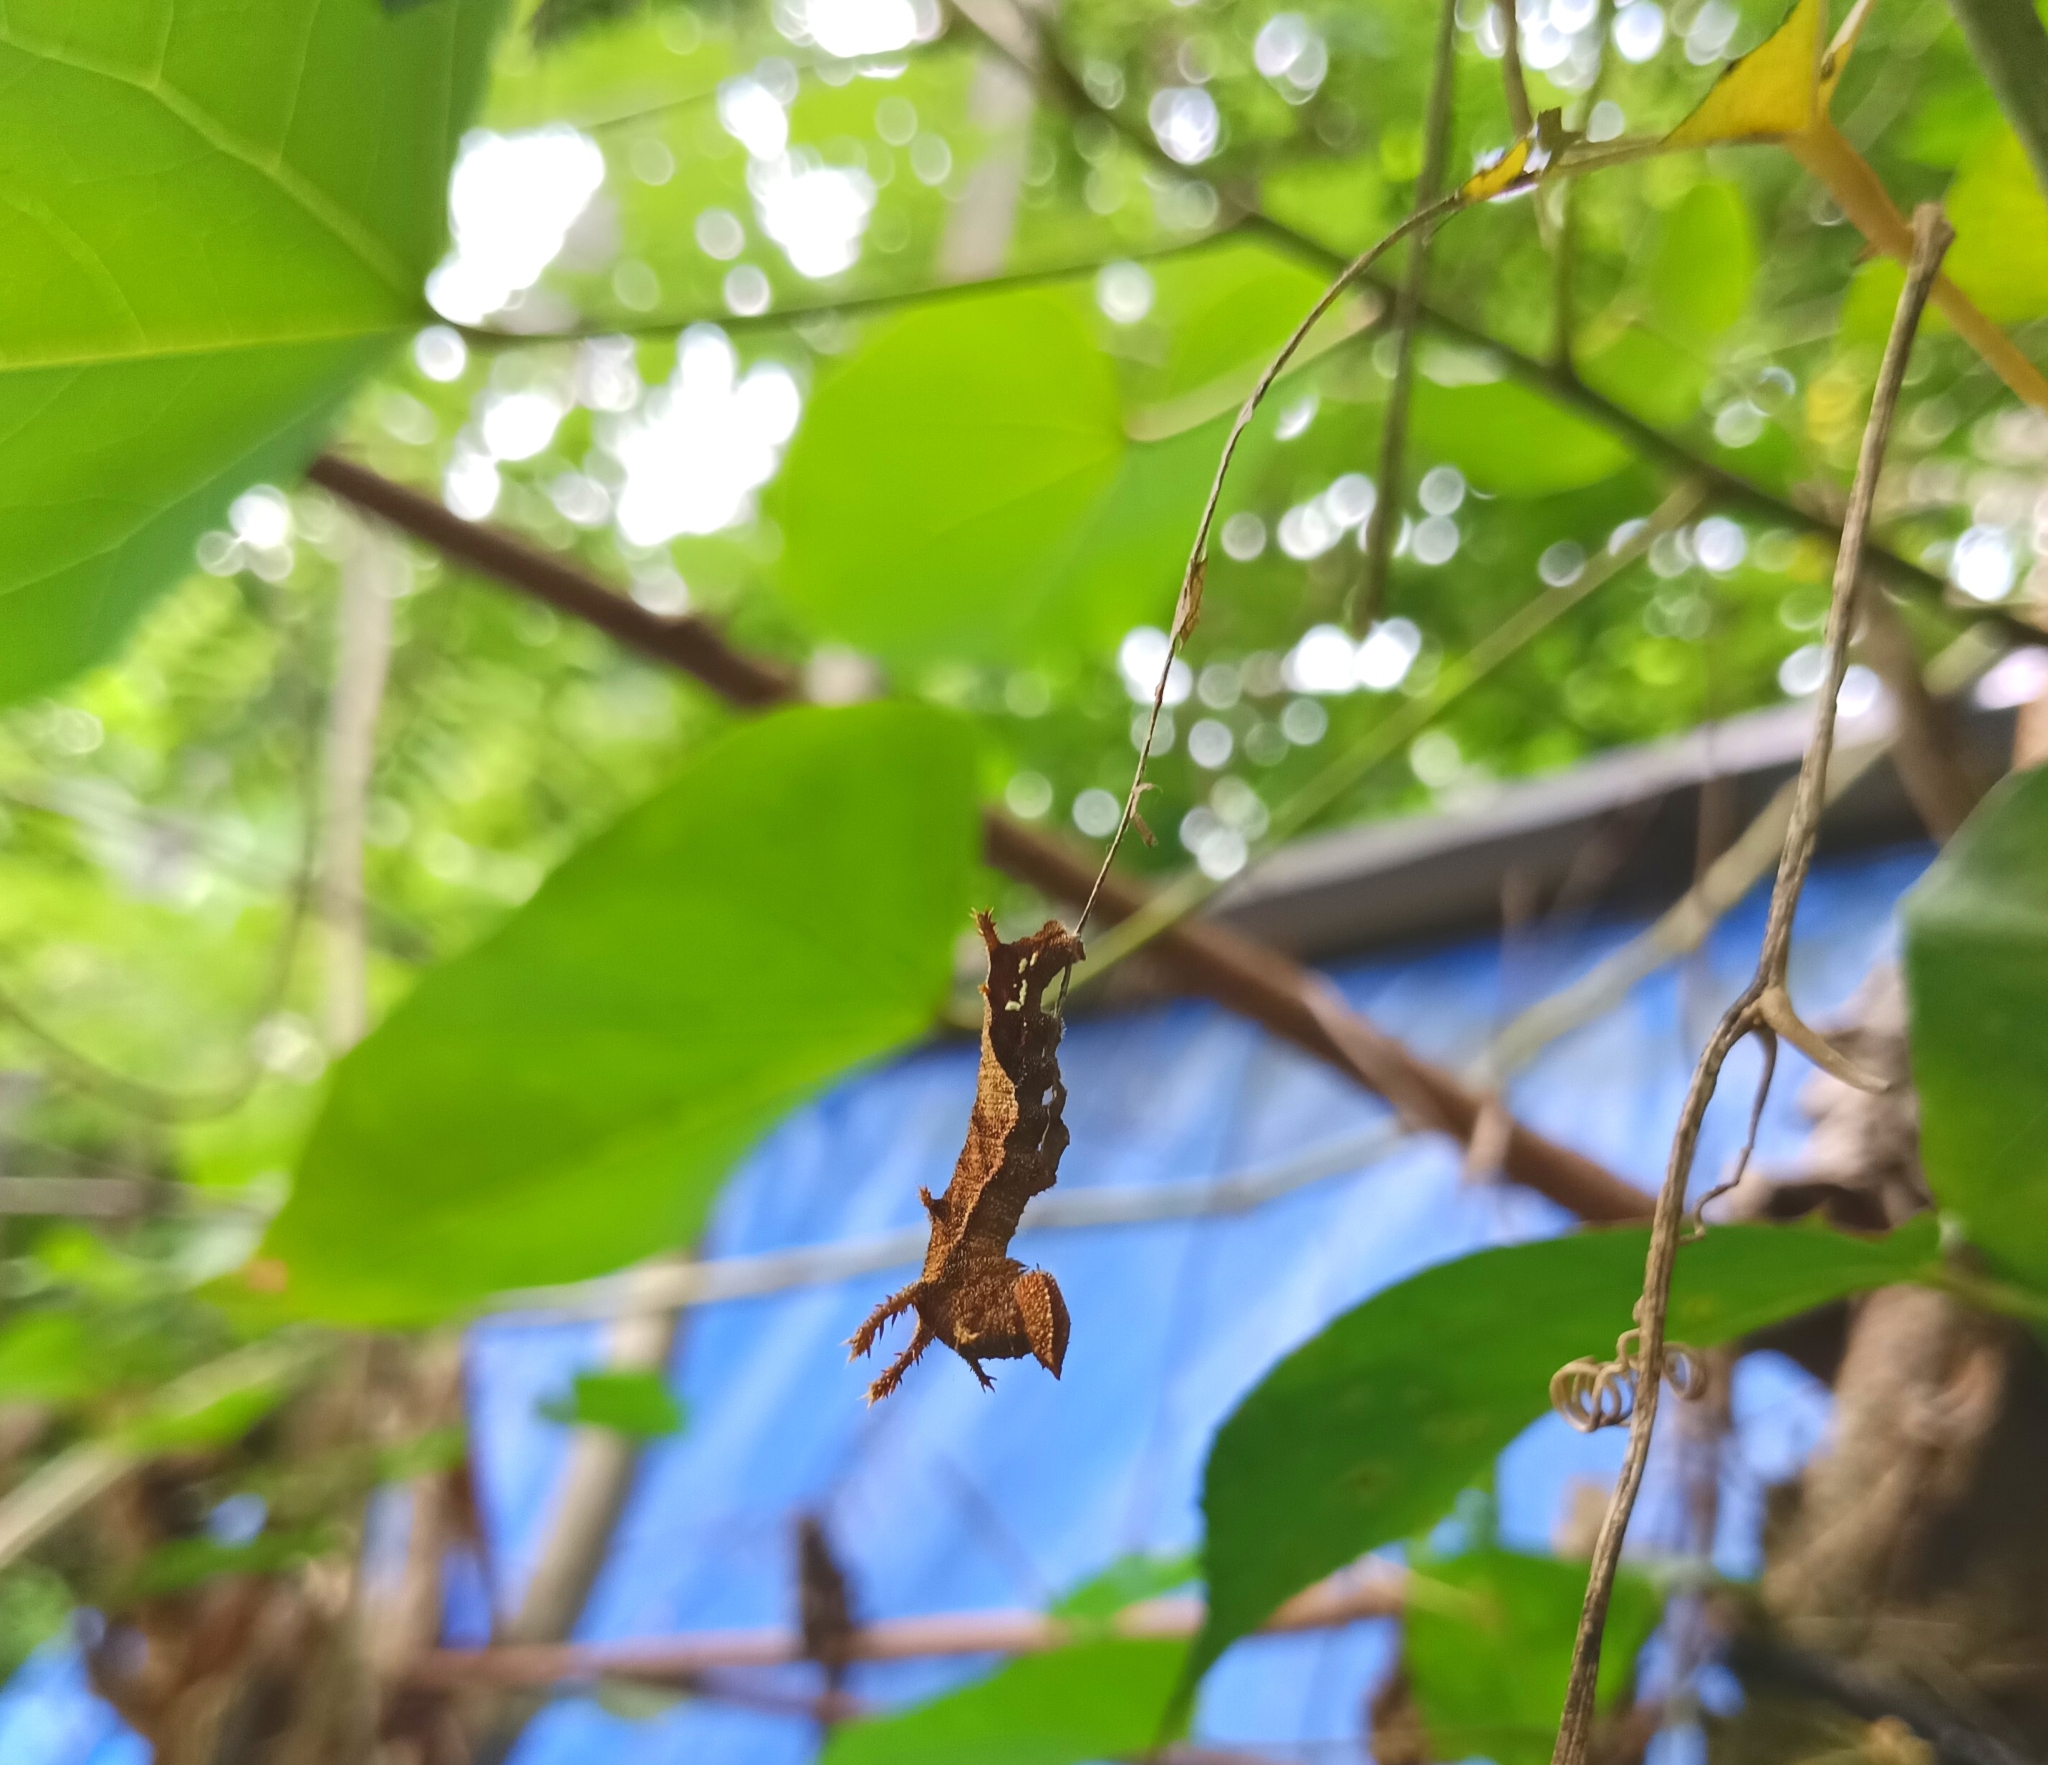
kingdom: Animalia
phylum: Arthropoda
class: Insecta
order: Lepidoptera
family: Nymphalidae
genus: Neptis
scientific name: Neptis jumbah
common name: Chestnut-streaked sailer
